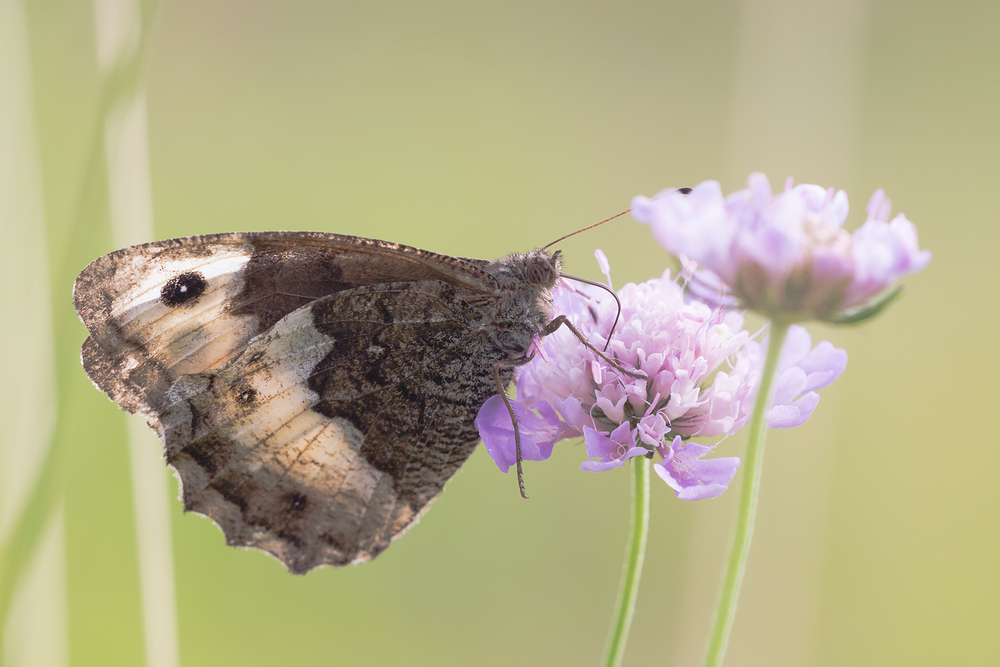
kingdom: Animalia
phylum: Arthropoda
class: Insecta
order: Lepidoptera
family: Nymphalidae
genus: Hipparchia
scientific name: Hipparchia hermione
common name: Rock grayling
